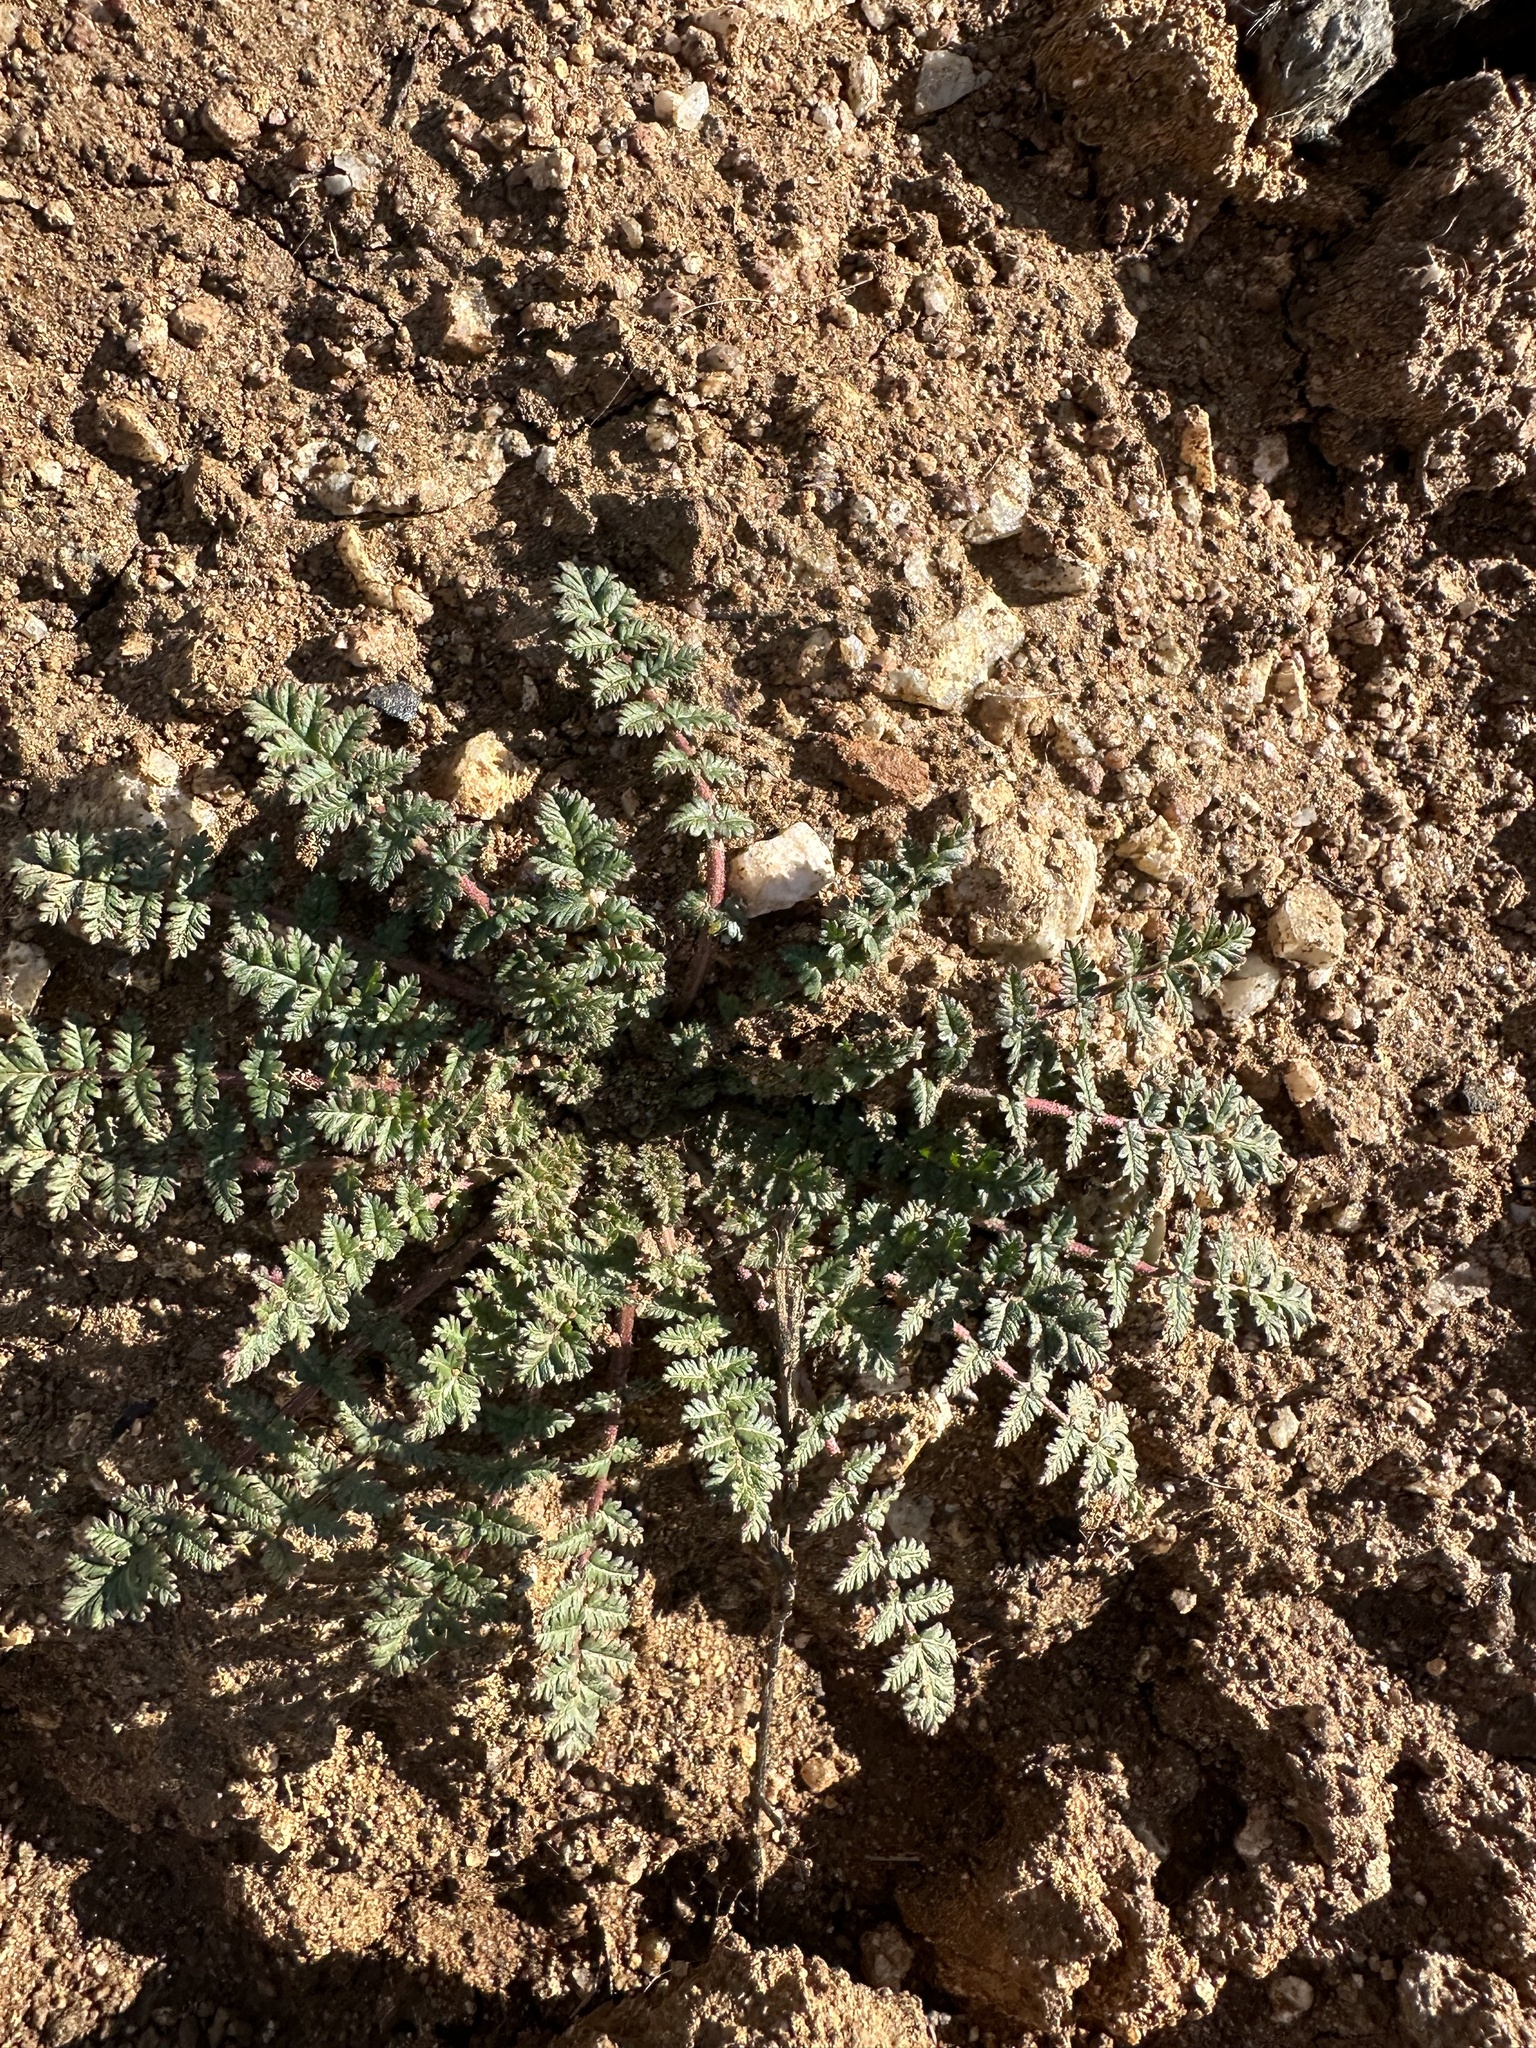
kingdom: Plantae
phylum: Tracheophyta
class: Magnoliopsida
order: Geraniales
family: Geraniaceae
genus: Erodium
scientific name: Erodium cicutarium
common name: Common stork's-bill
